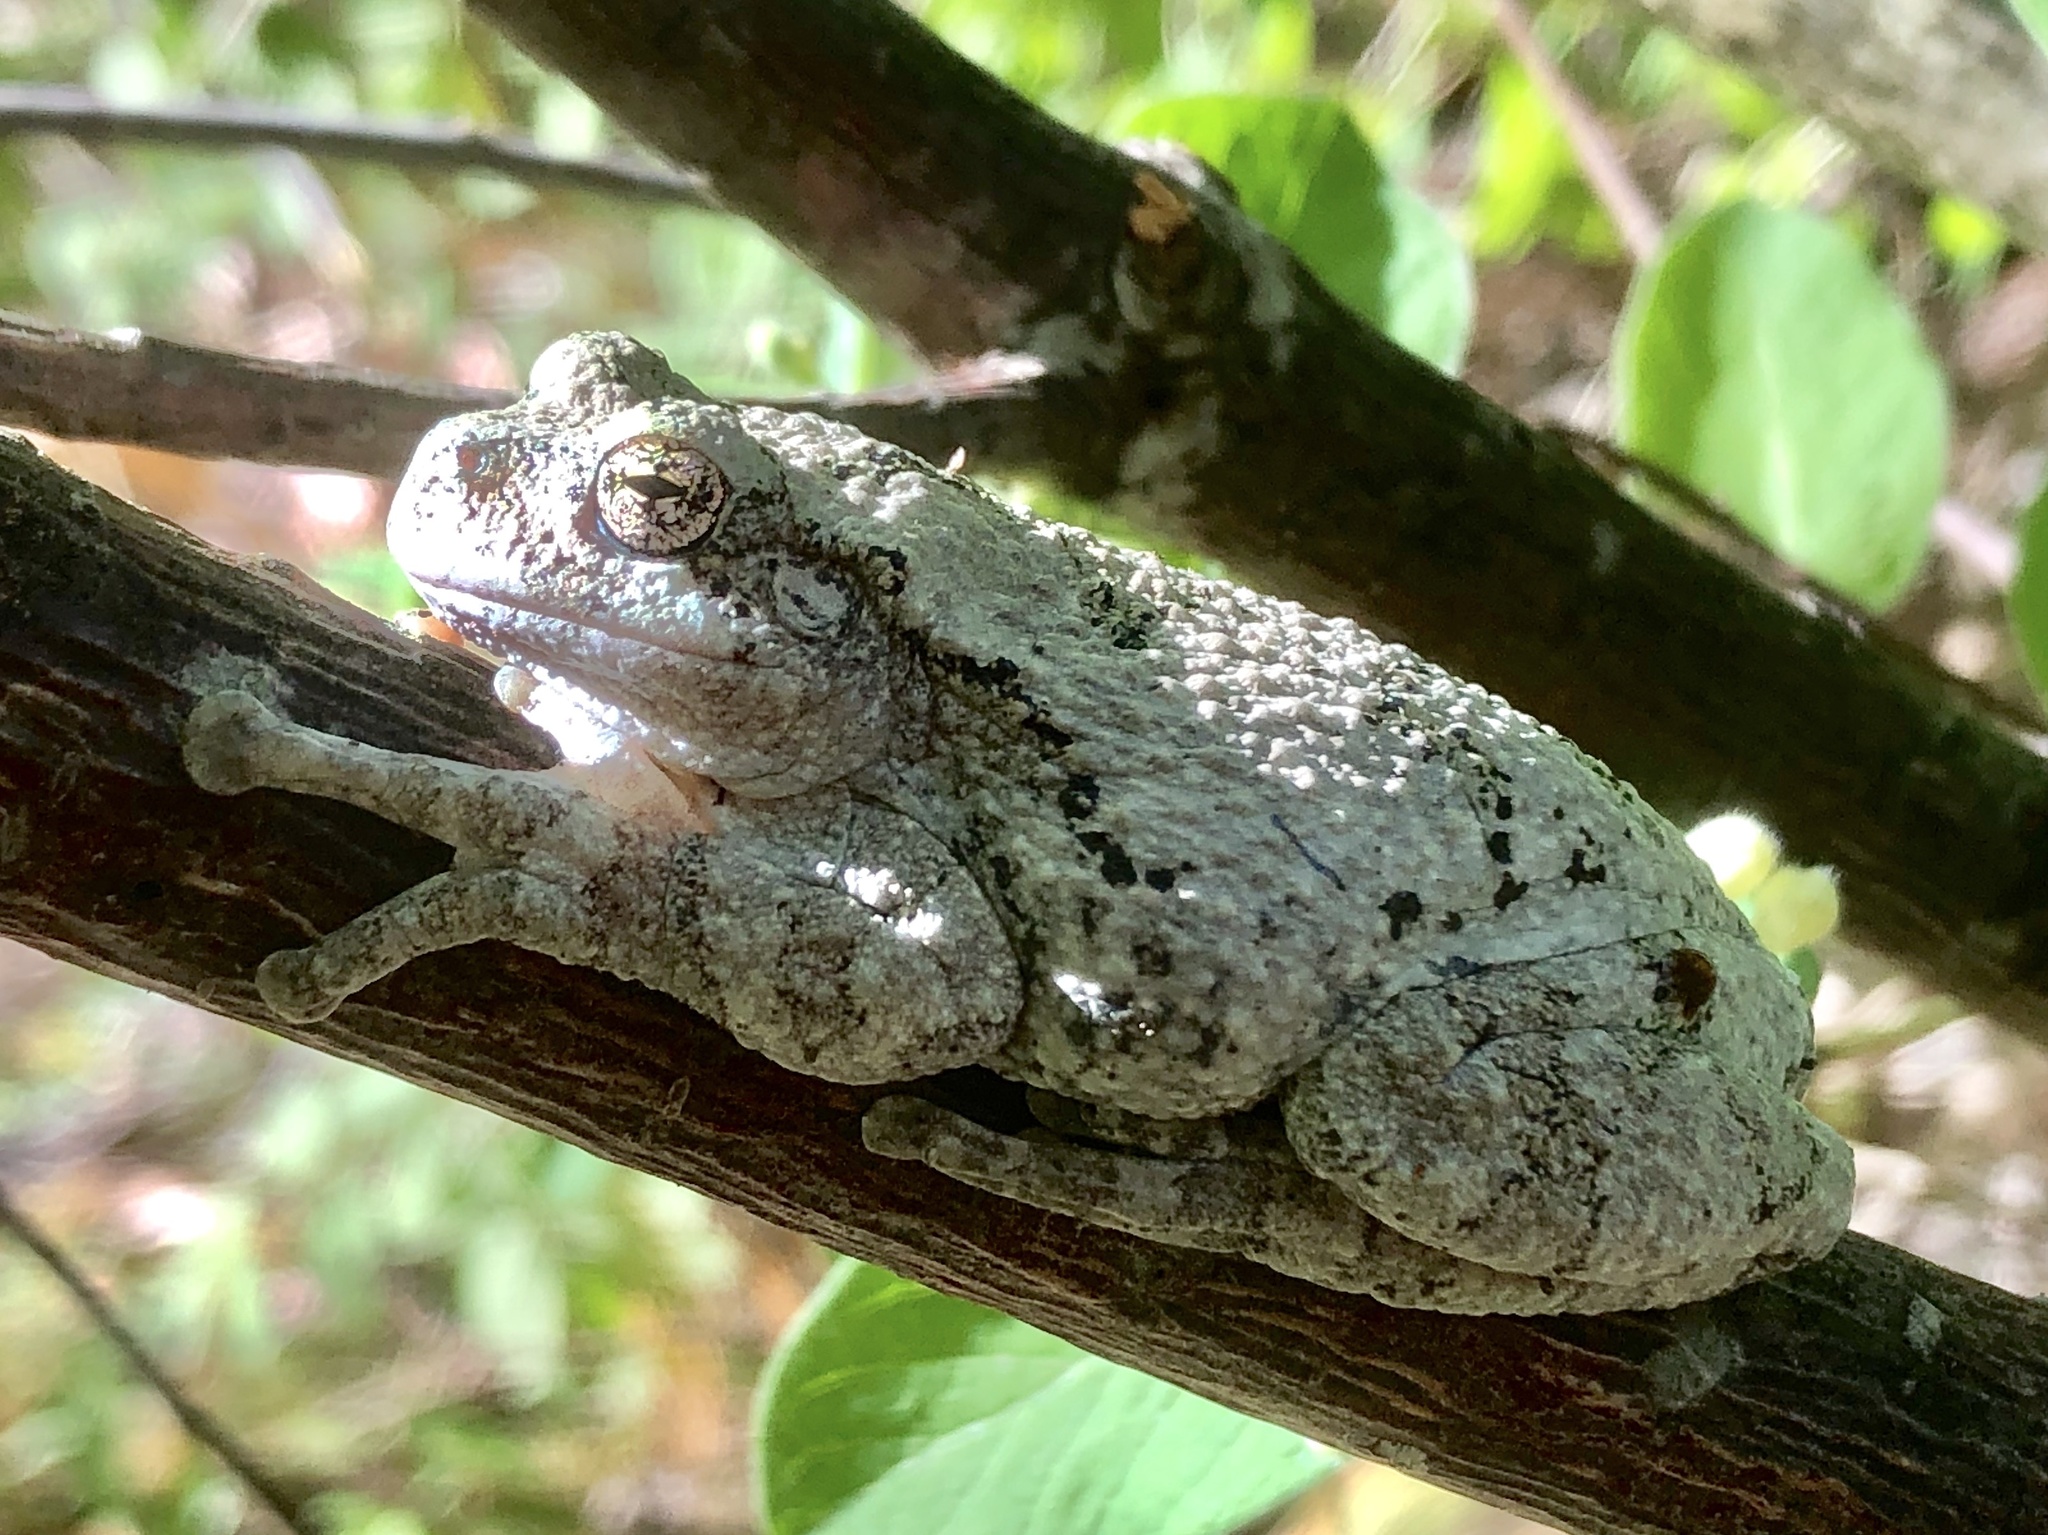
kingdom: Animalia
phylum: Chordata
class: Amphibia
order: Anura
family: Hylidae
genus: Dryophytes
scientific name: Dryophytes versicolor
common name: Gray treefrog
